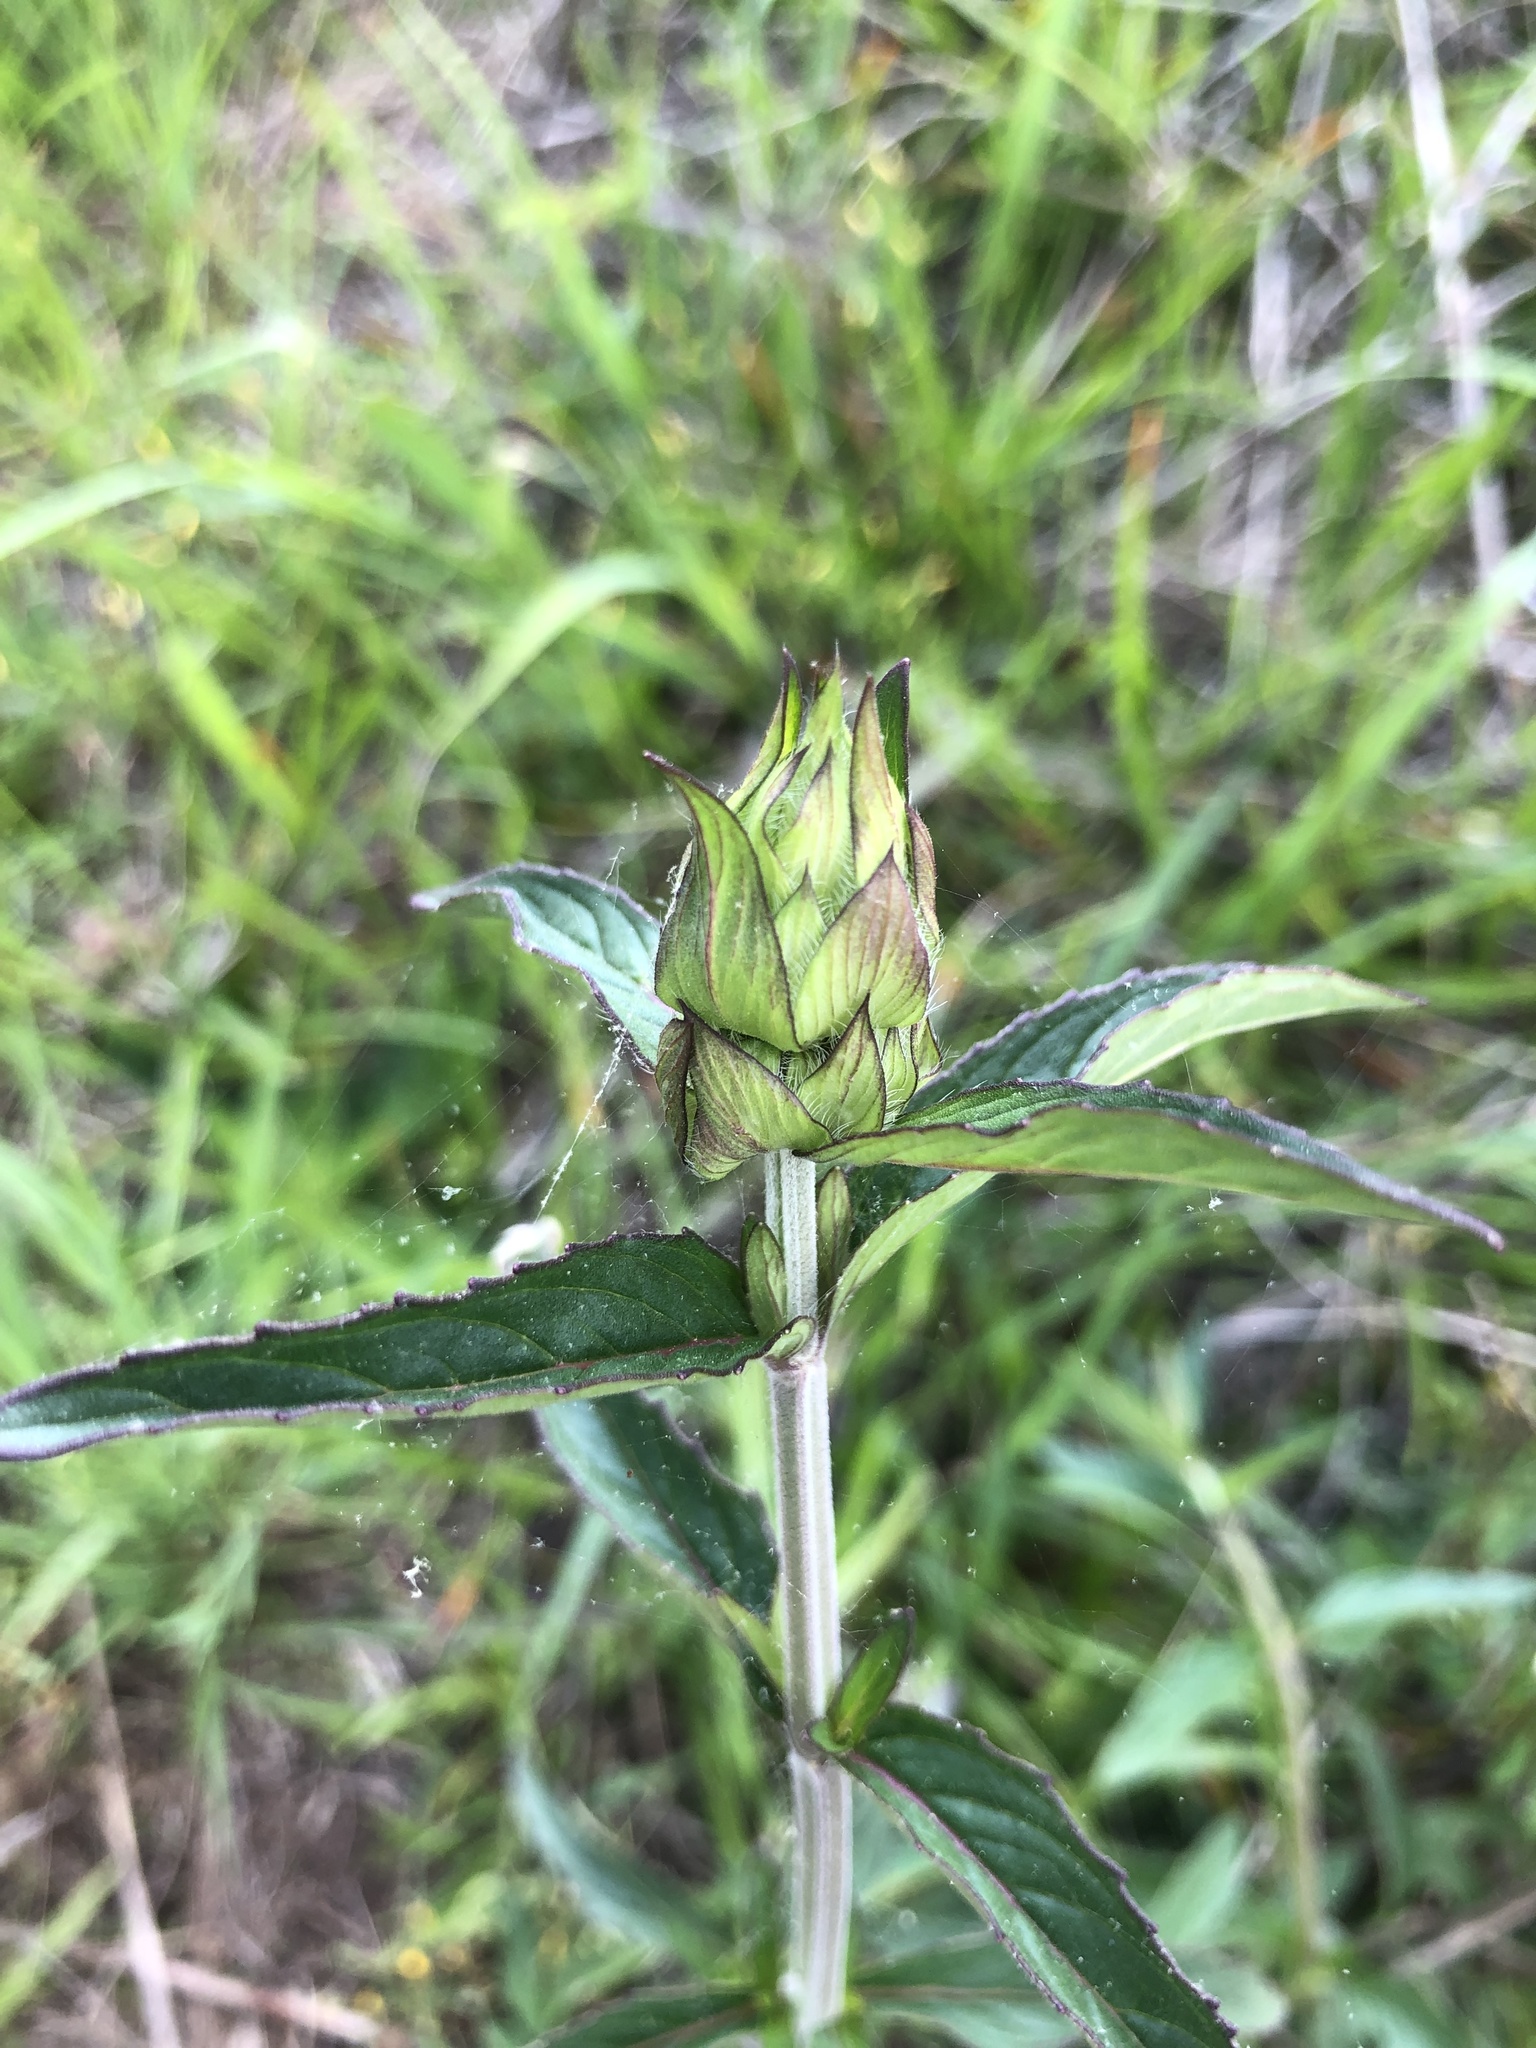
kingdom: Plantae
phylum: Tracheophyta
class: Magnoliopsida
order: Lamiales
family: Lamiaceae
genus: Blephilia
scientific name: Blephilia ciliata
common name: Downy blephilia
